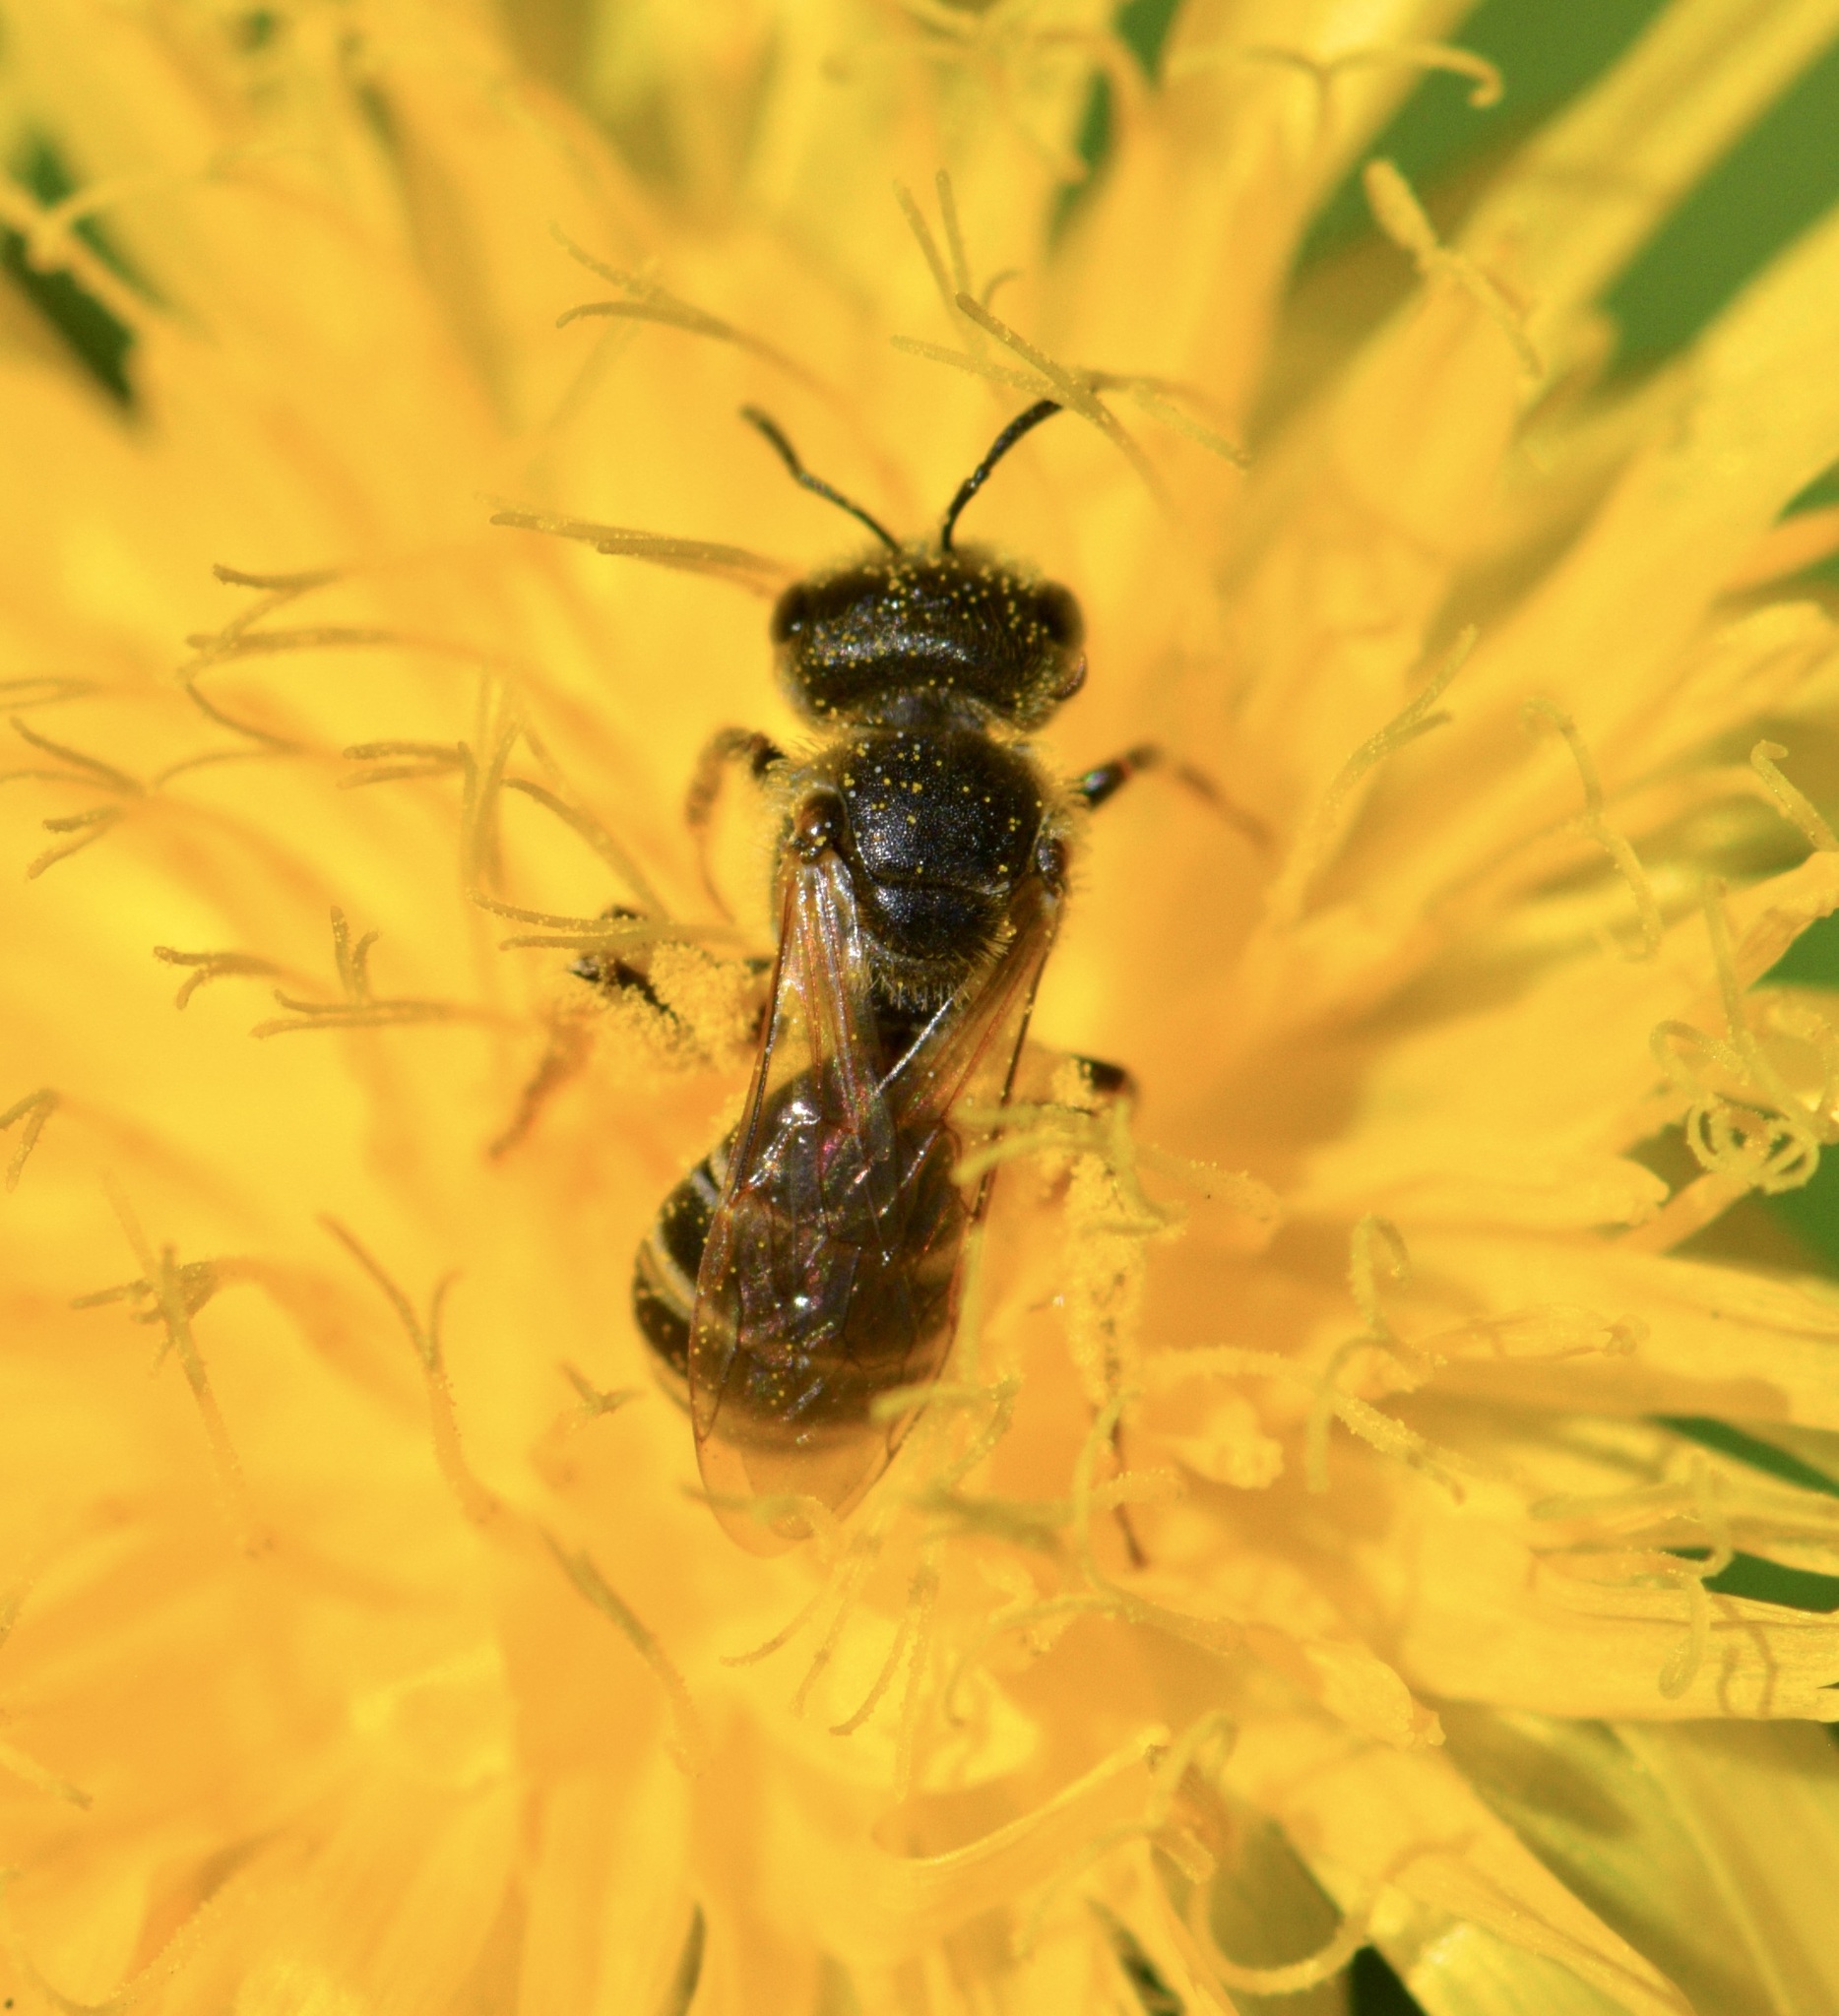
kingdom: Animalia
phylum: Arthropoda
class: Insecta
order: Hymenoptera
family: Halictidae
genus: Halictus
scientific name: Halictus ligatus
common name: Ligated furrow bee
